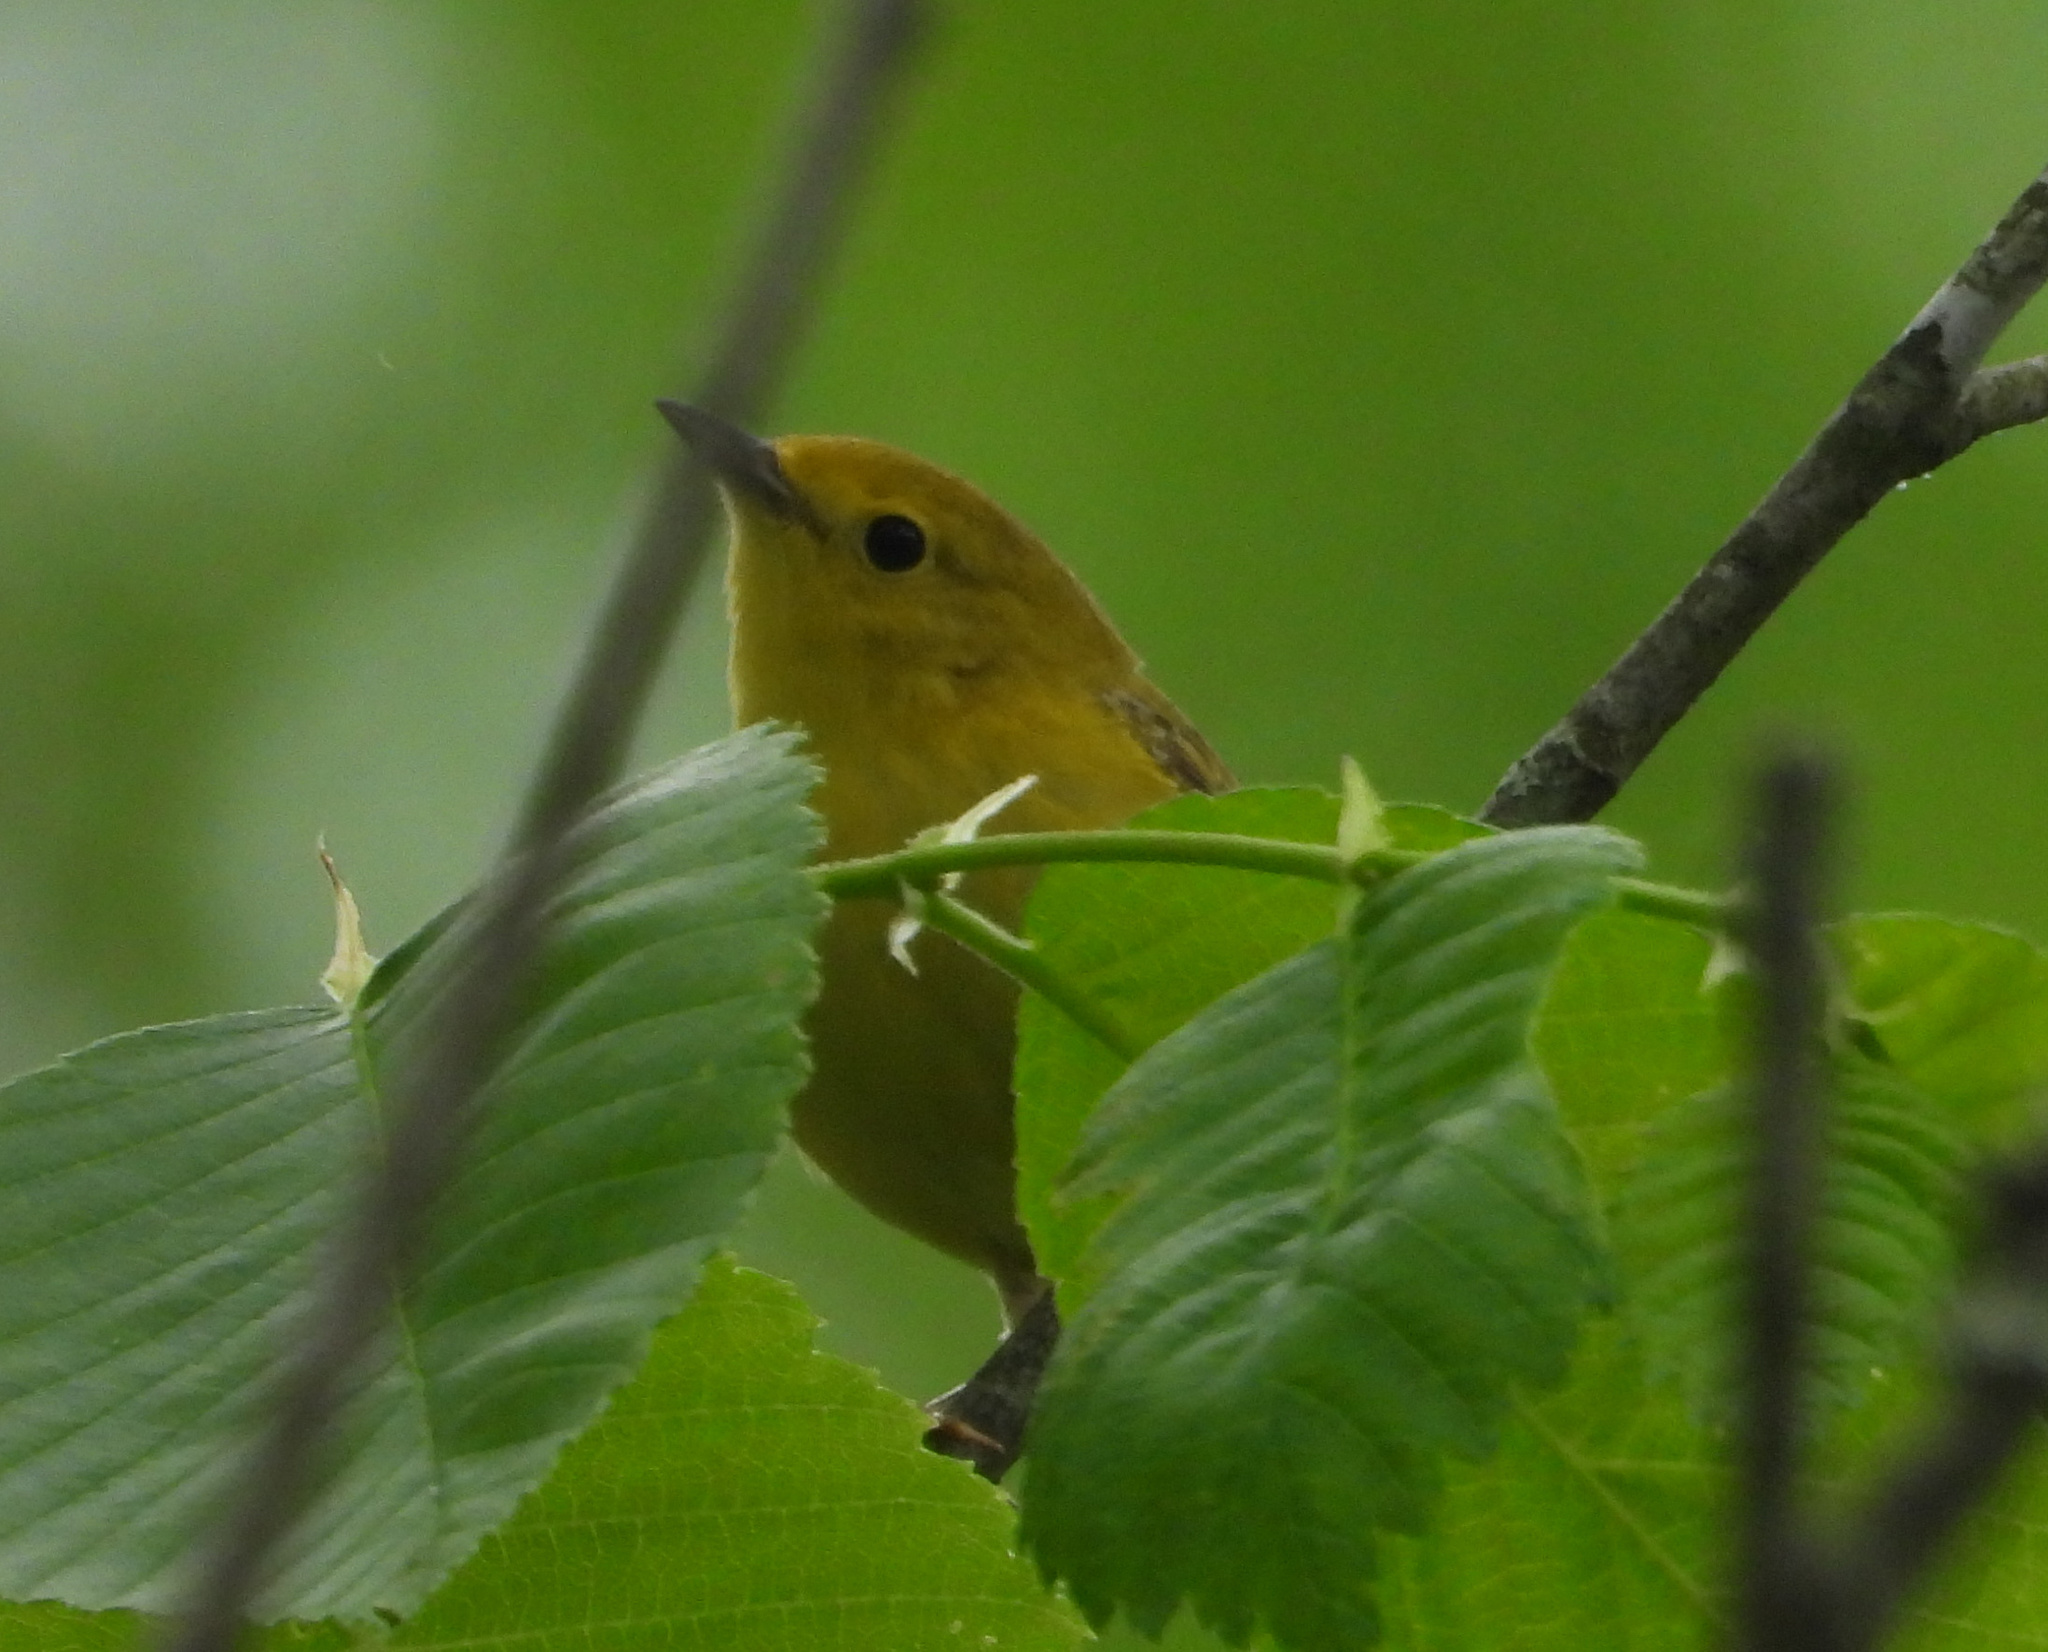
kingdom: Animalia
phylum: Chordata
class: Aves
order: Passeriformes
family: Parulidae
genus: Setophaga
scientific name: Setophaga petechia
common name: Yellow warbler
